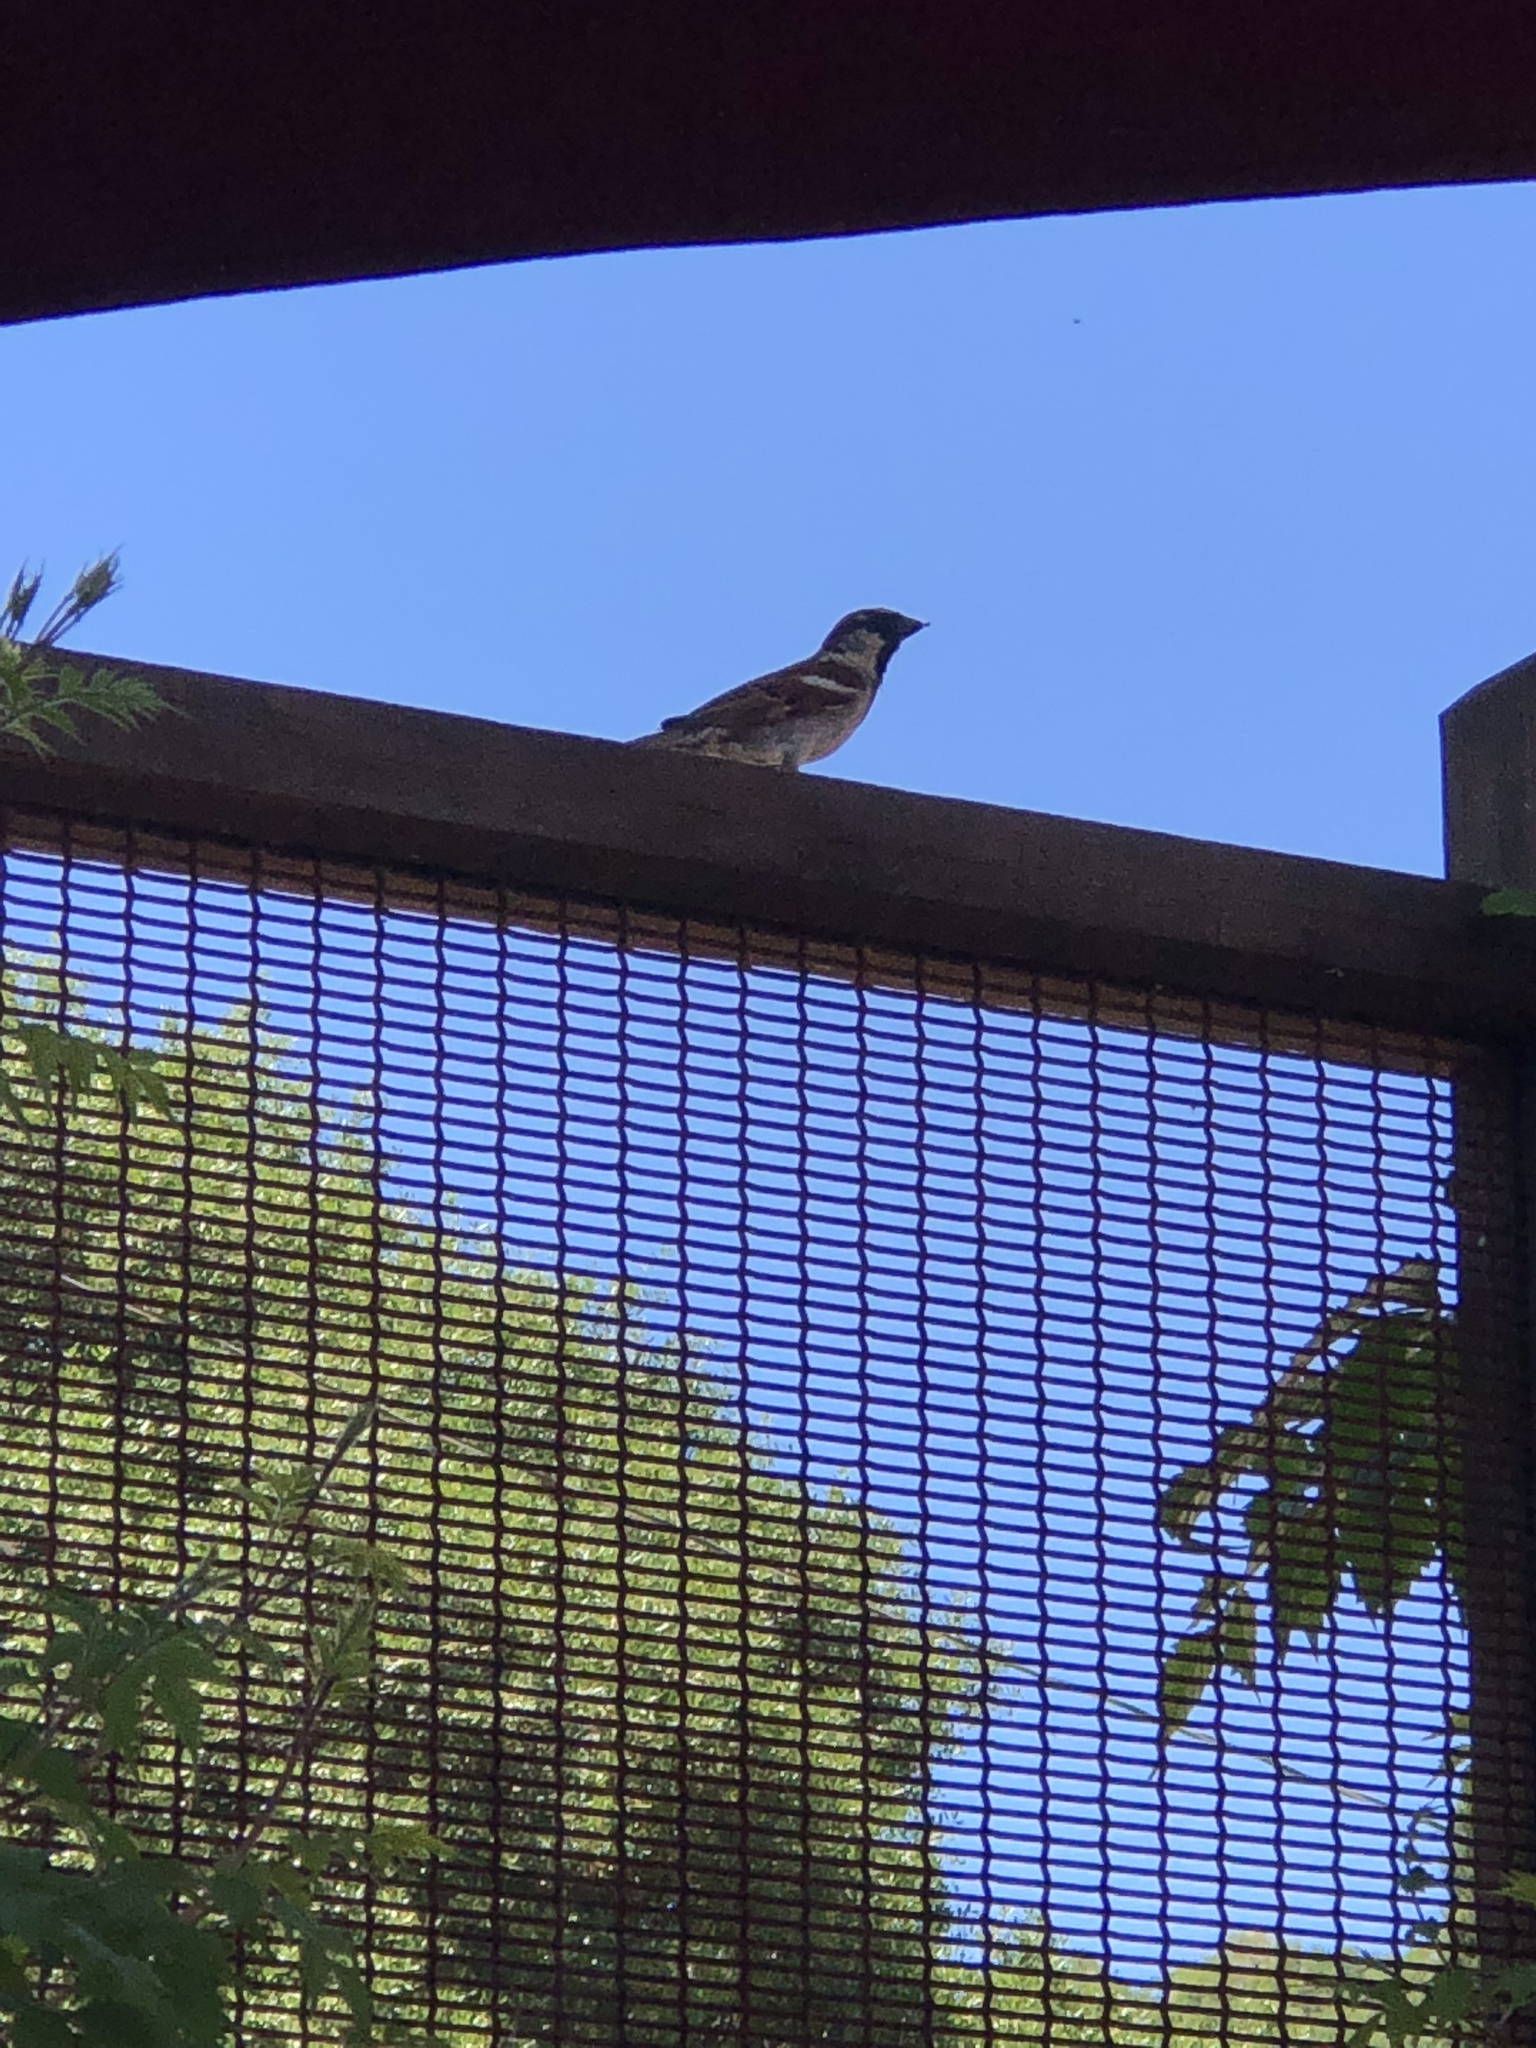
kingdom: Animalia
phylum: Chordata
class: Aves
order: Passeriformes
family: Passeridae
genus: Passer
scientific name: Passer domesticus
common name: House sparrow
